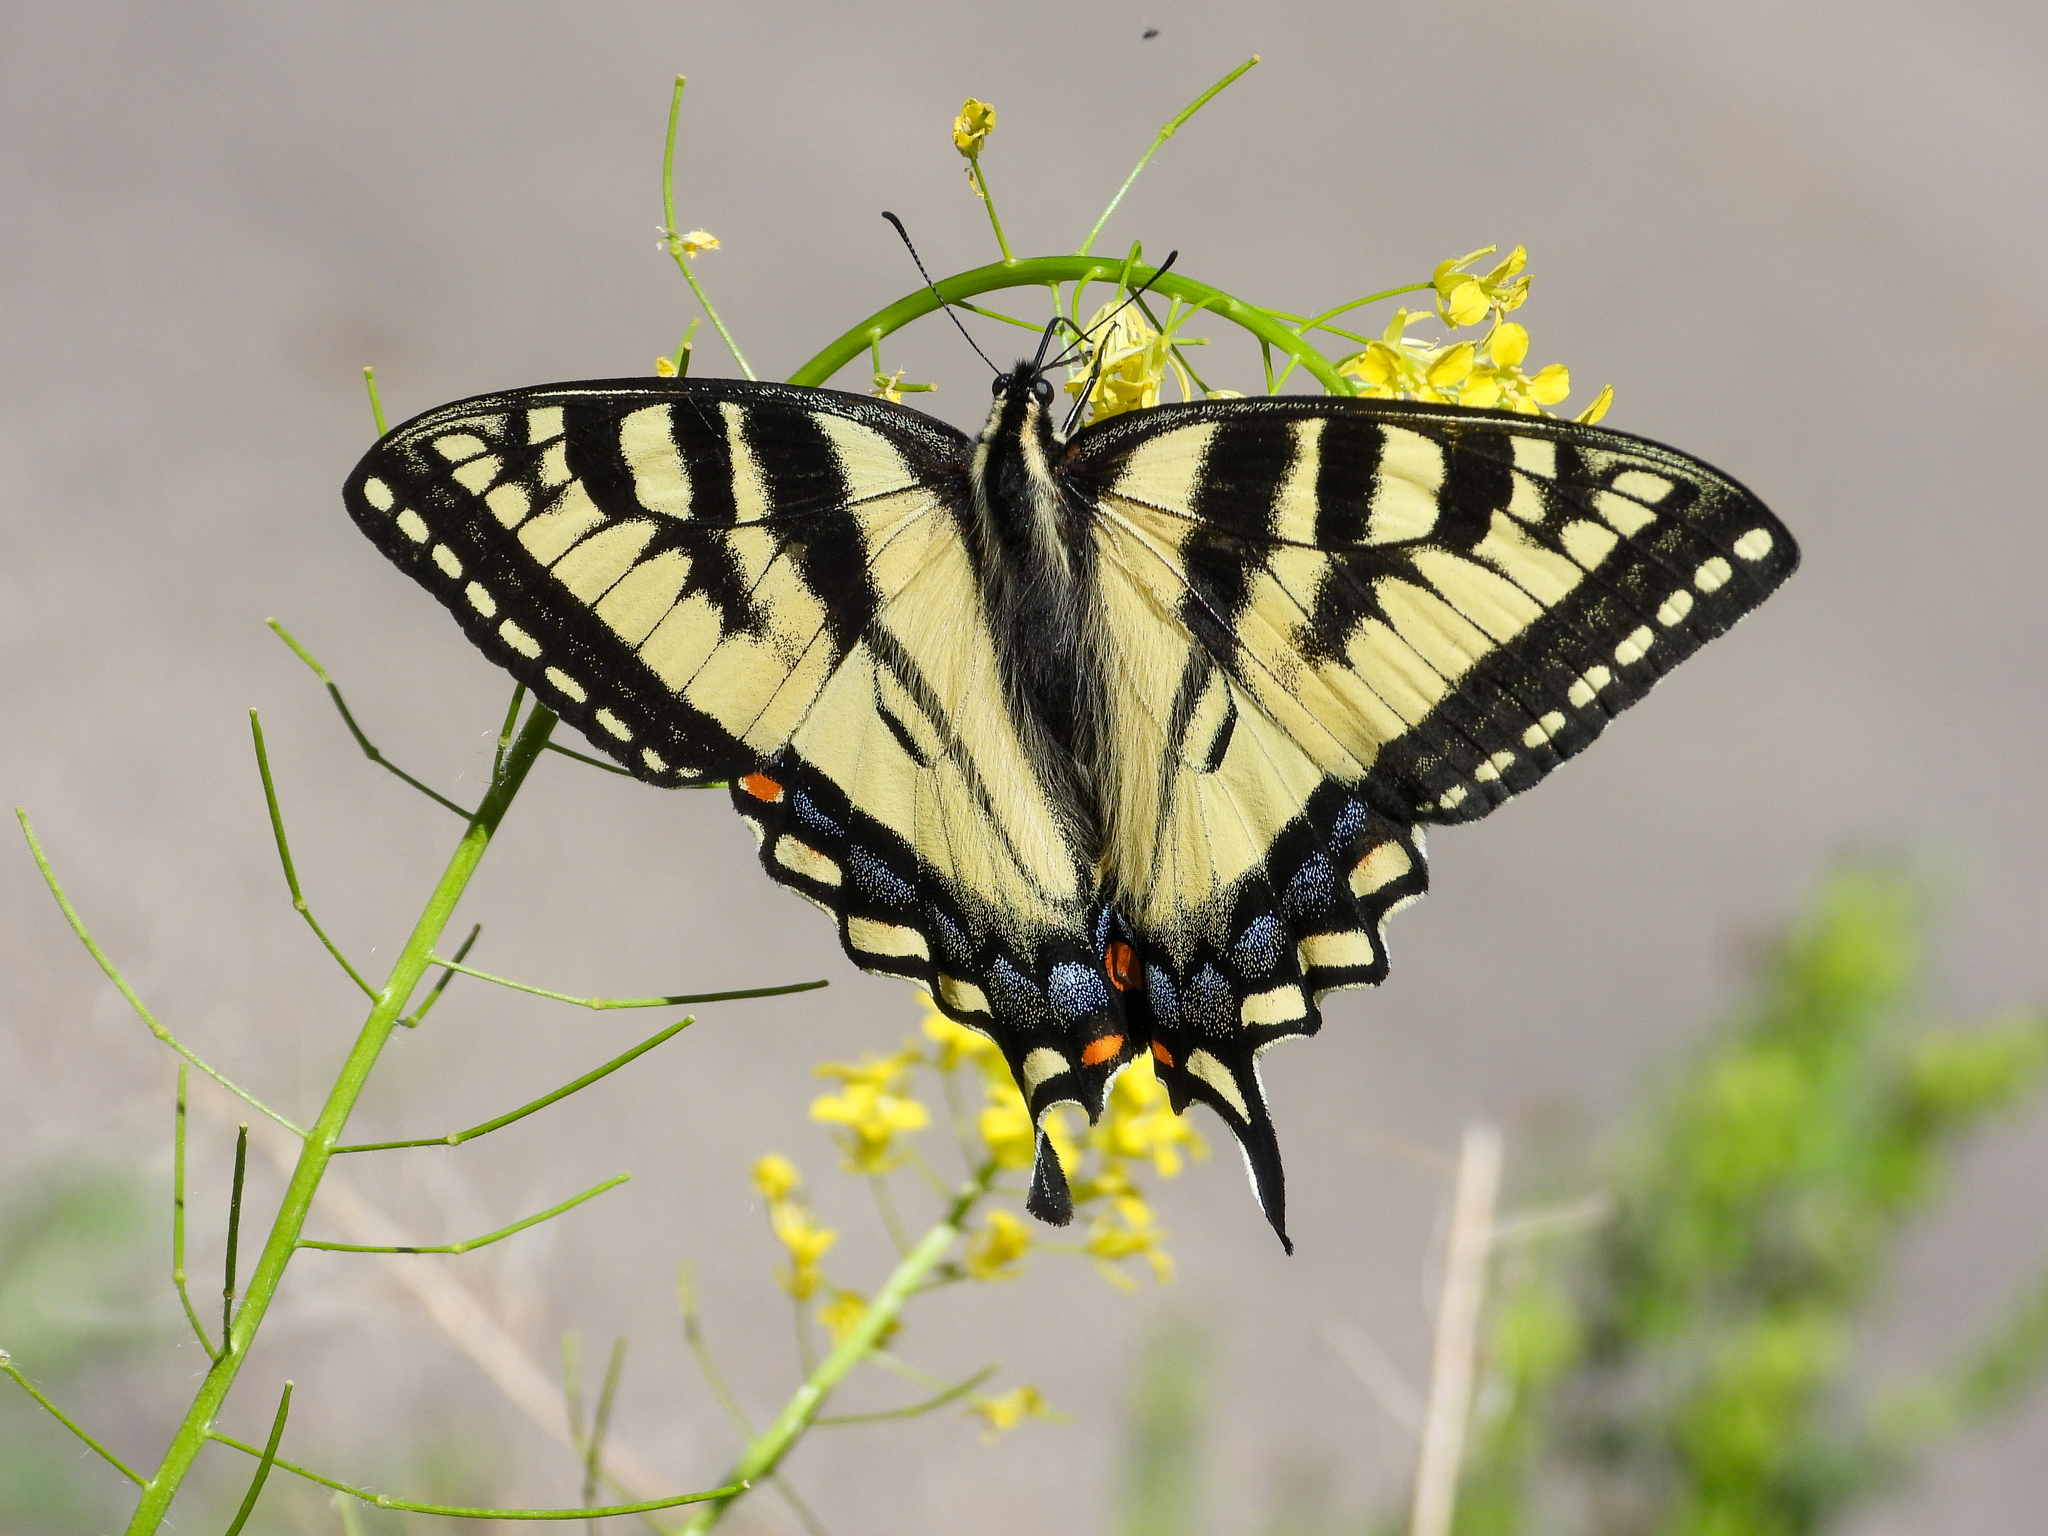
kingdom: Animalia
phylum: Arthropoda
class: Insecta
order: Lepidoptera
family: Papilionidae
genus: Papilio
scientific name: Papilio canadensis
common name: Canadian tiger swallowtail
